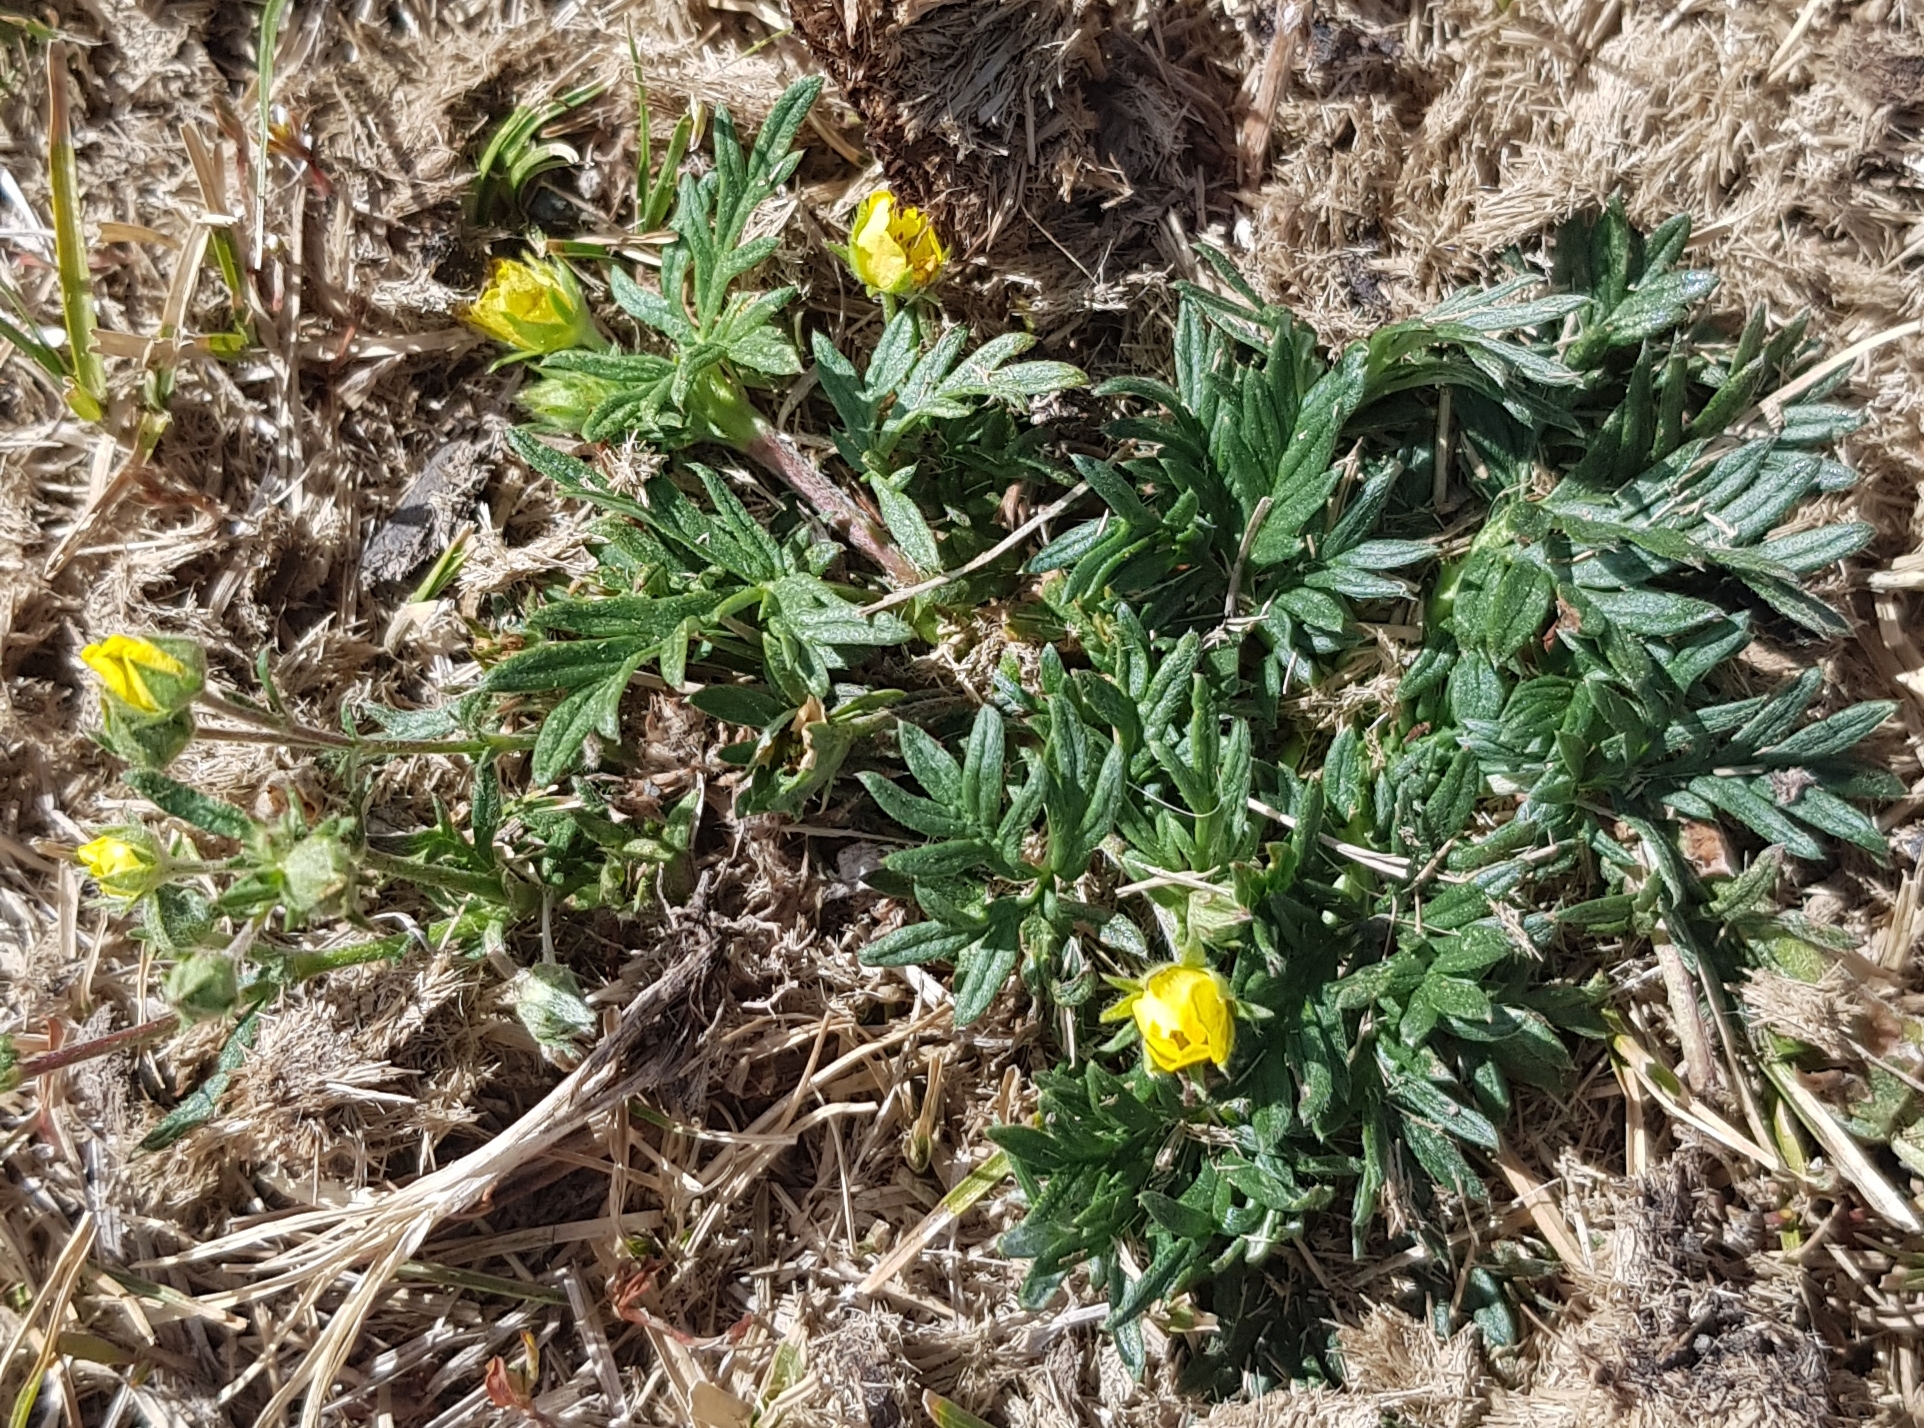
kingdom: Plantae
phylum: Tracheophyta
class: Magnoliopsida
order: Rosales
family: Rosaceae
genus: Potentilla
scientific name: Potentilla tergemina
